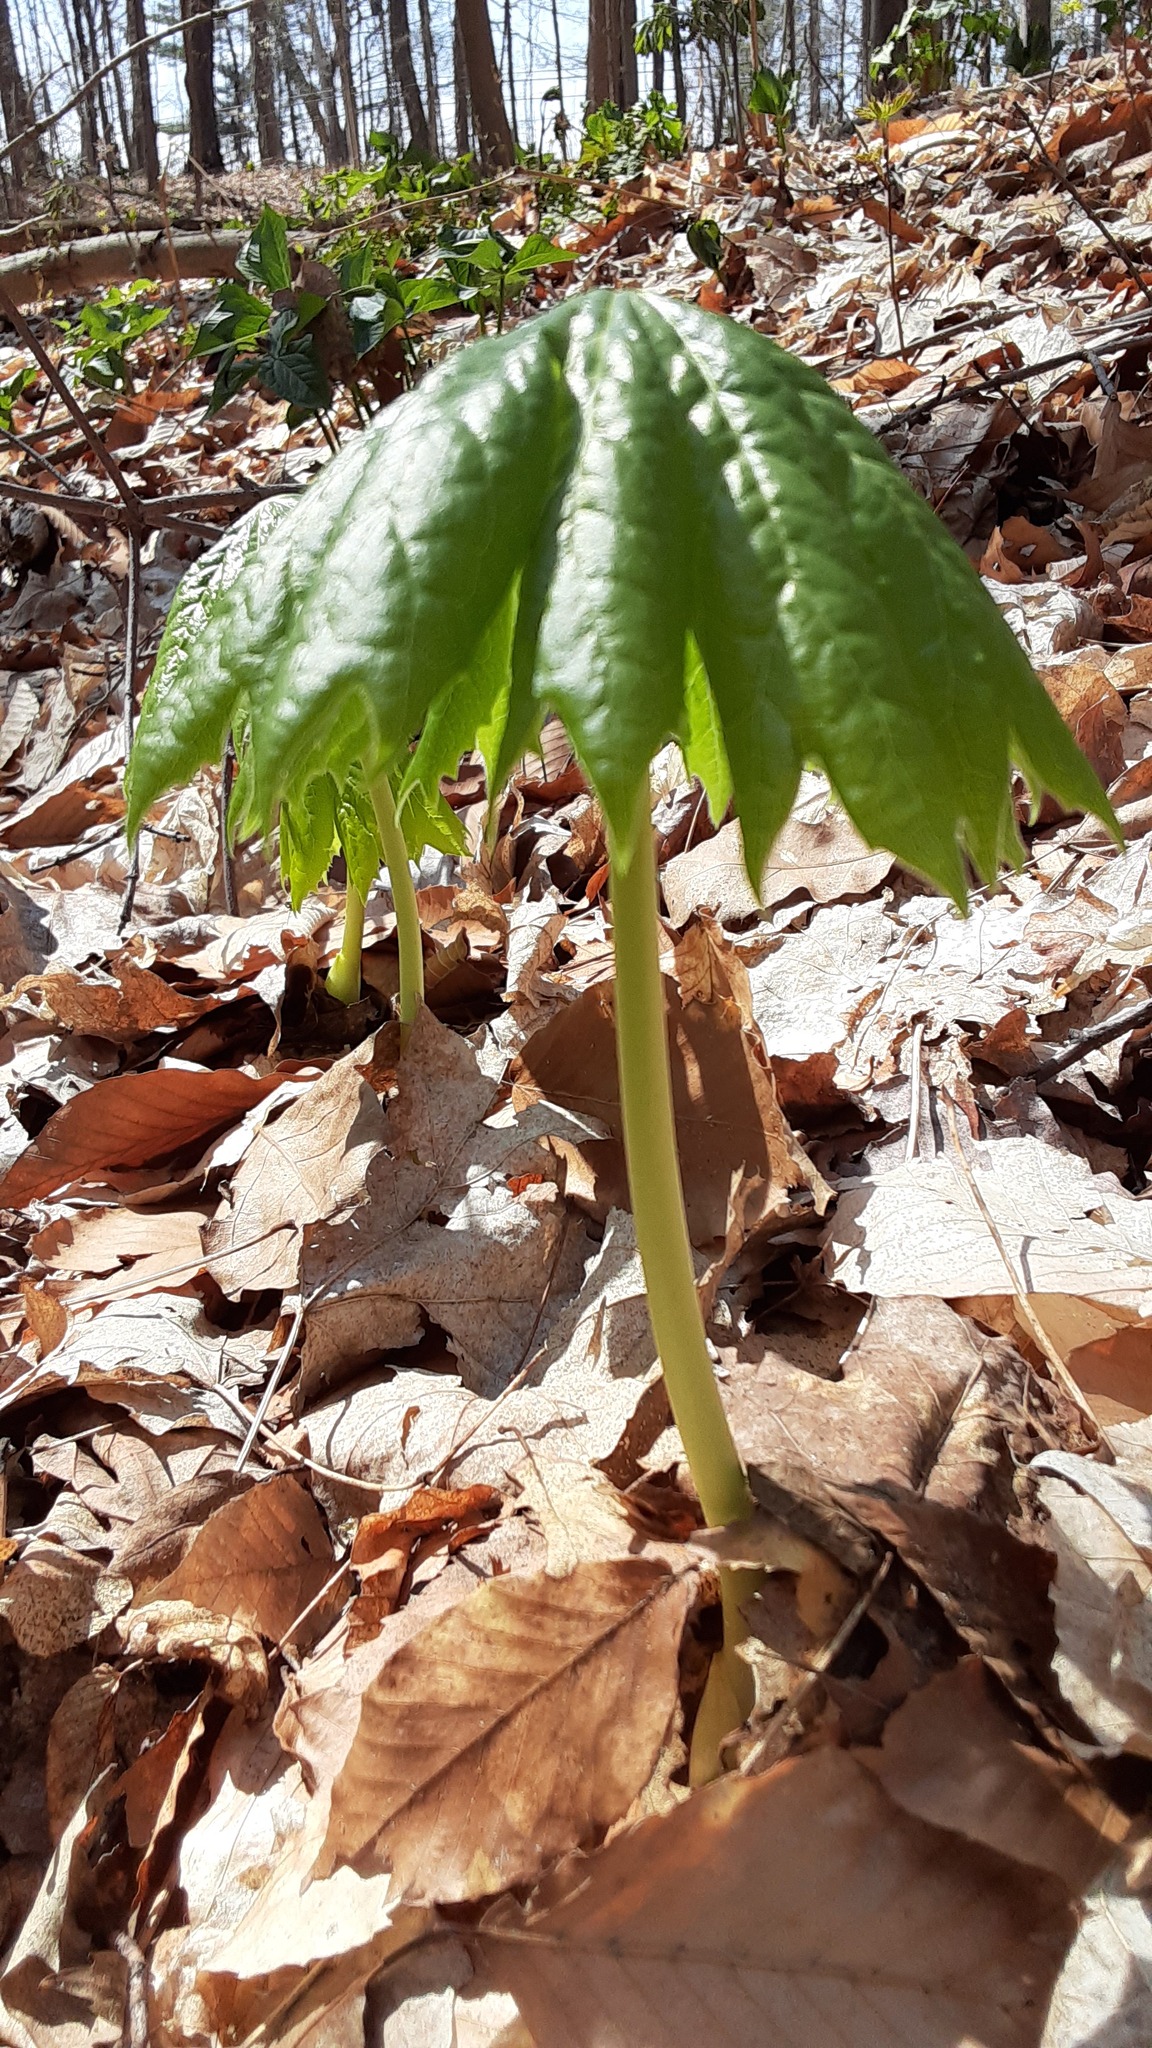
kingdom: Plantae
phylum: Tracheophyta
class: Magnoliopsida
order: Ranunculales
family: Berberidaceae
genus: Podophyllum
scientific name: Podophyllum peltatum
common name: Wild mandrake
